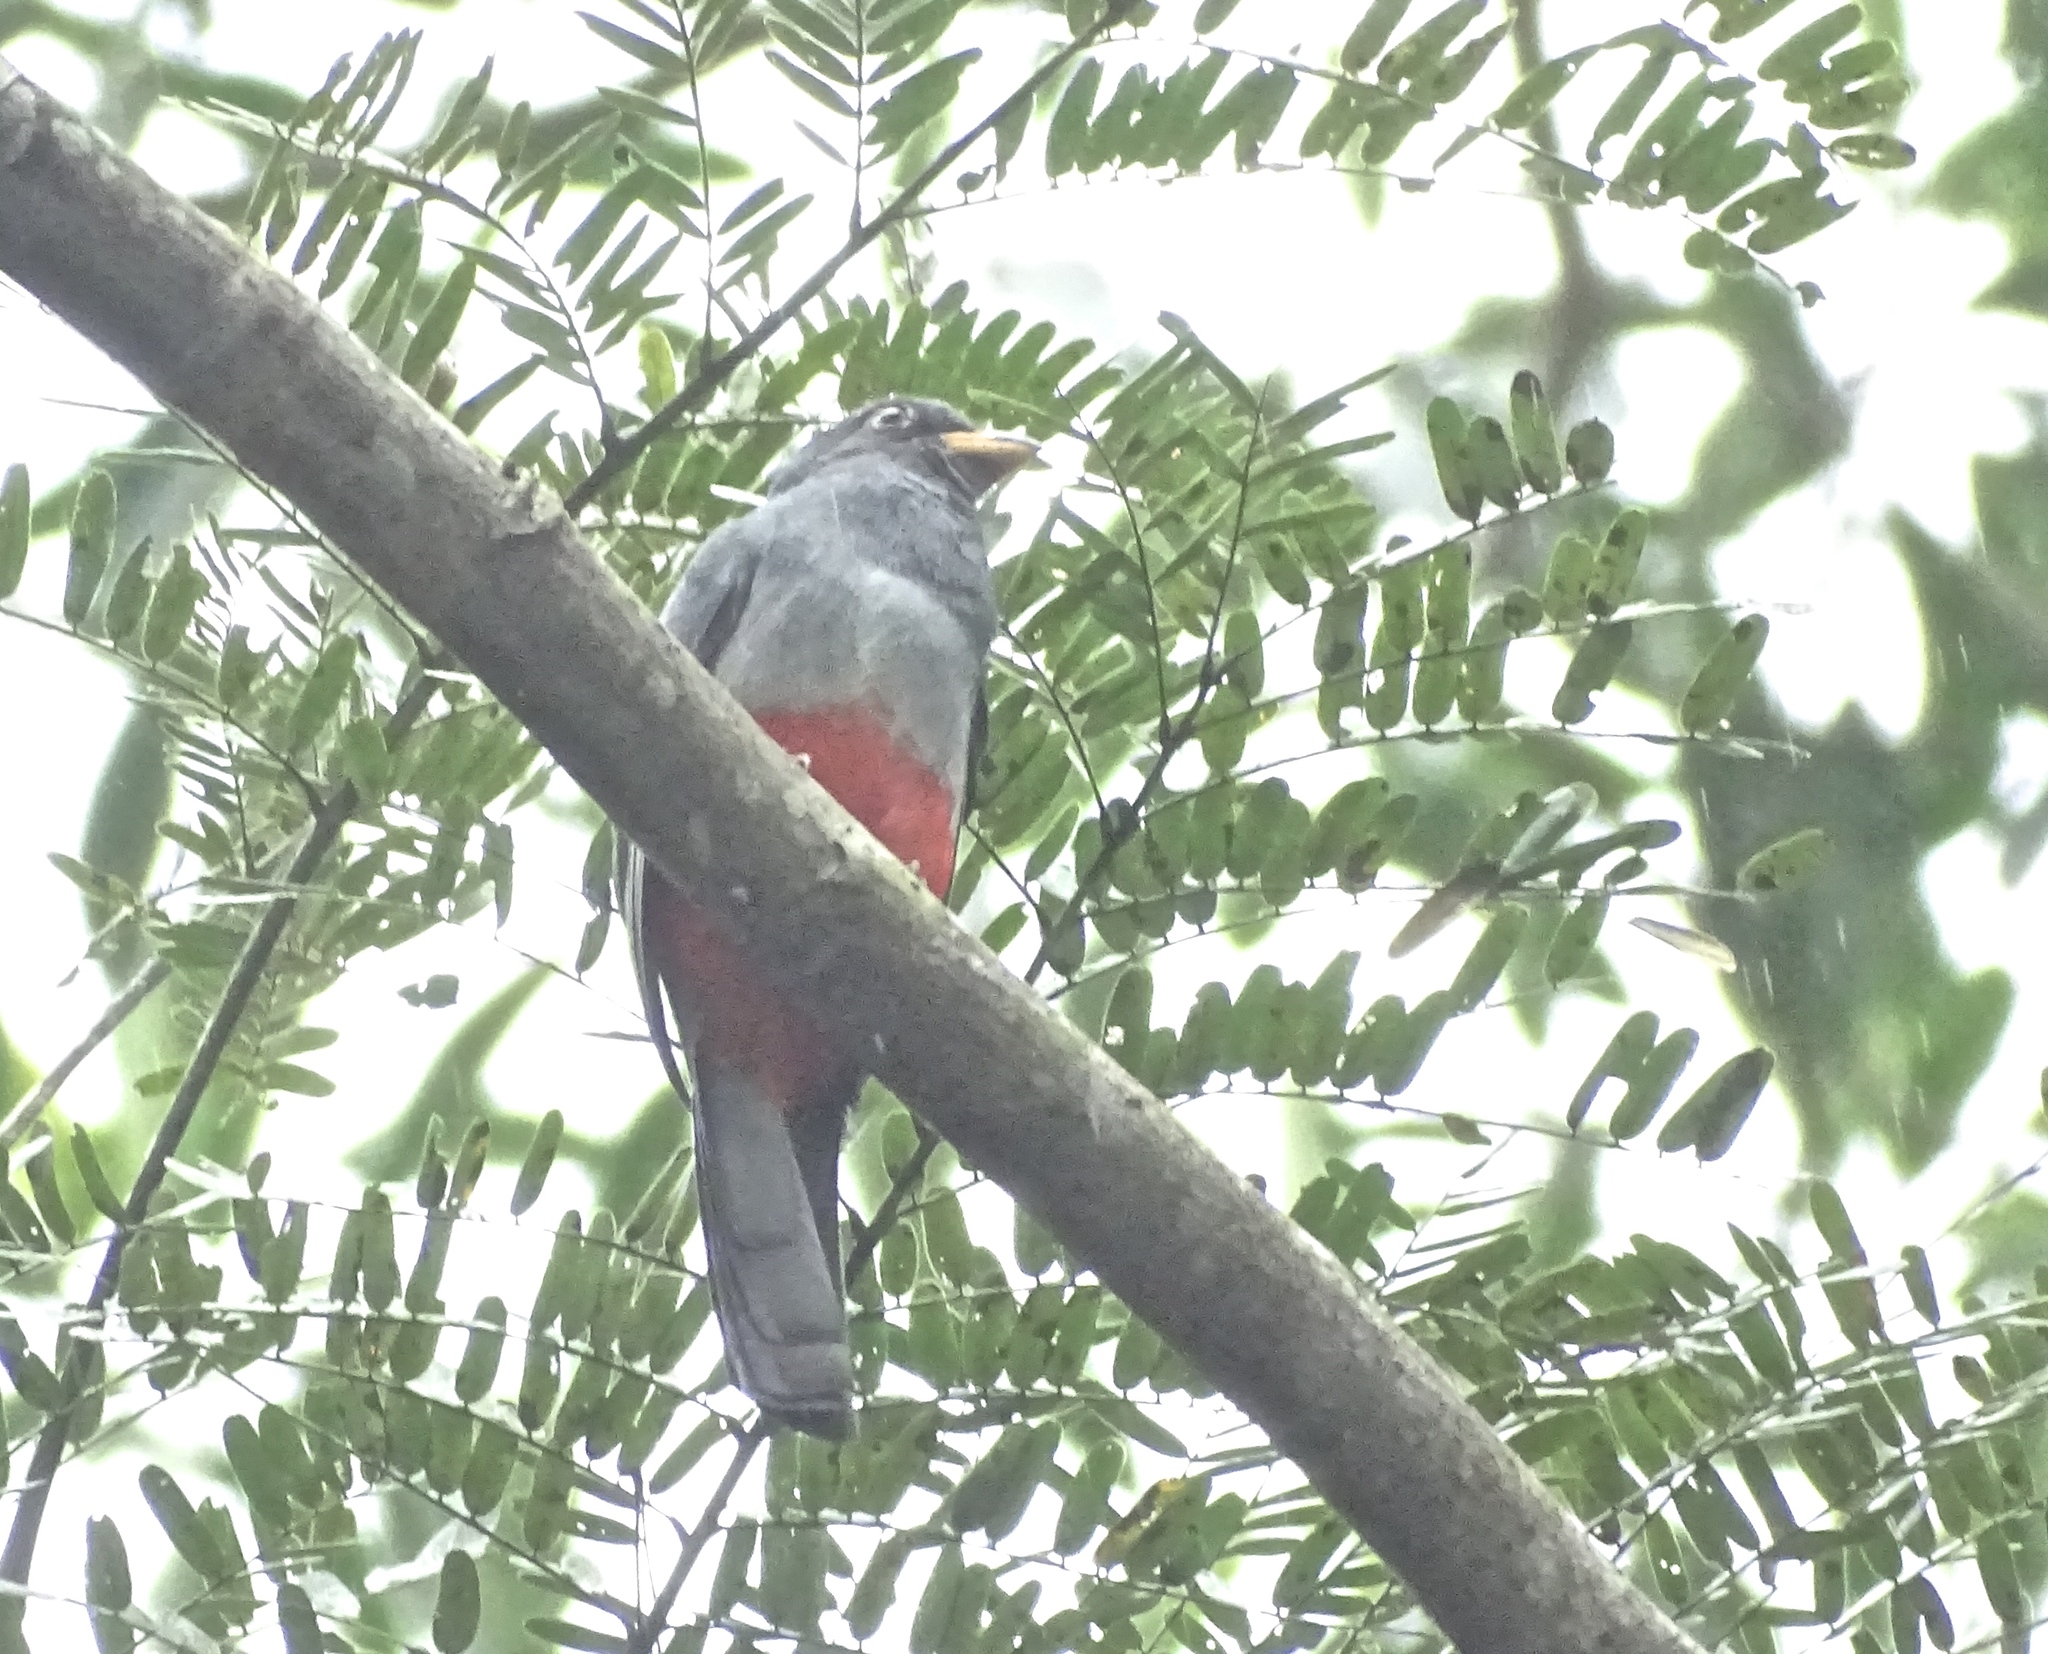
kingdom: Animalia
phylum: Chordata
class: Aves
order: Trogoniformes
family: Trogonidae
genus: Trogon
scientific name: Trogon melanurus
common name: Black-tailed trogon
